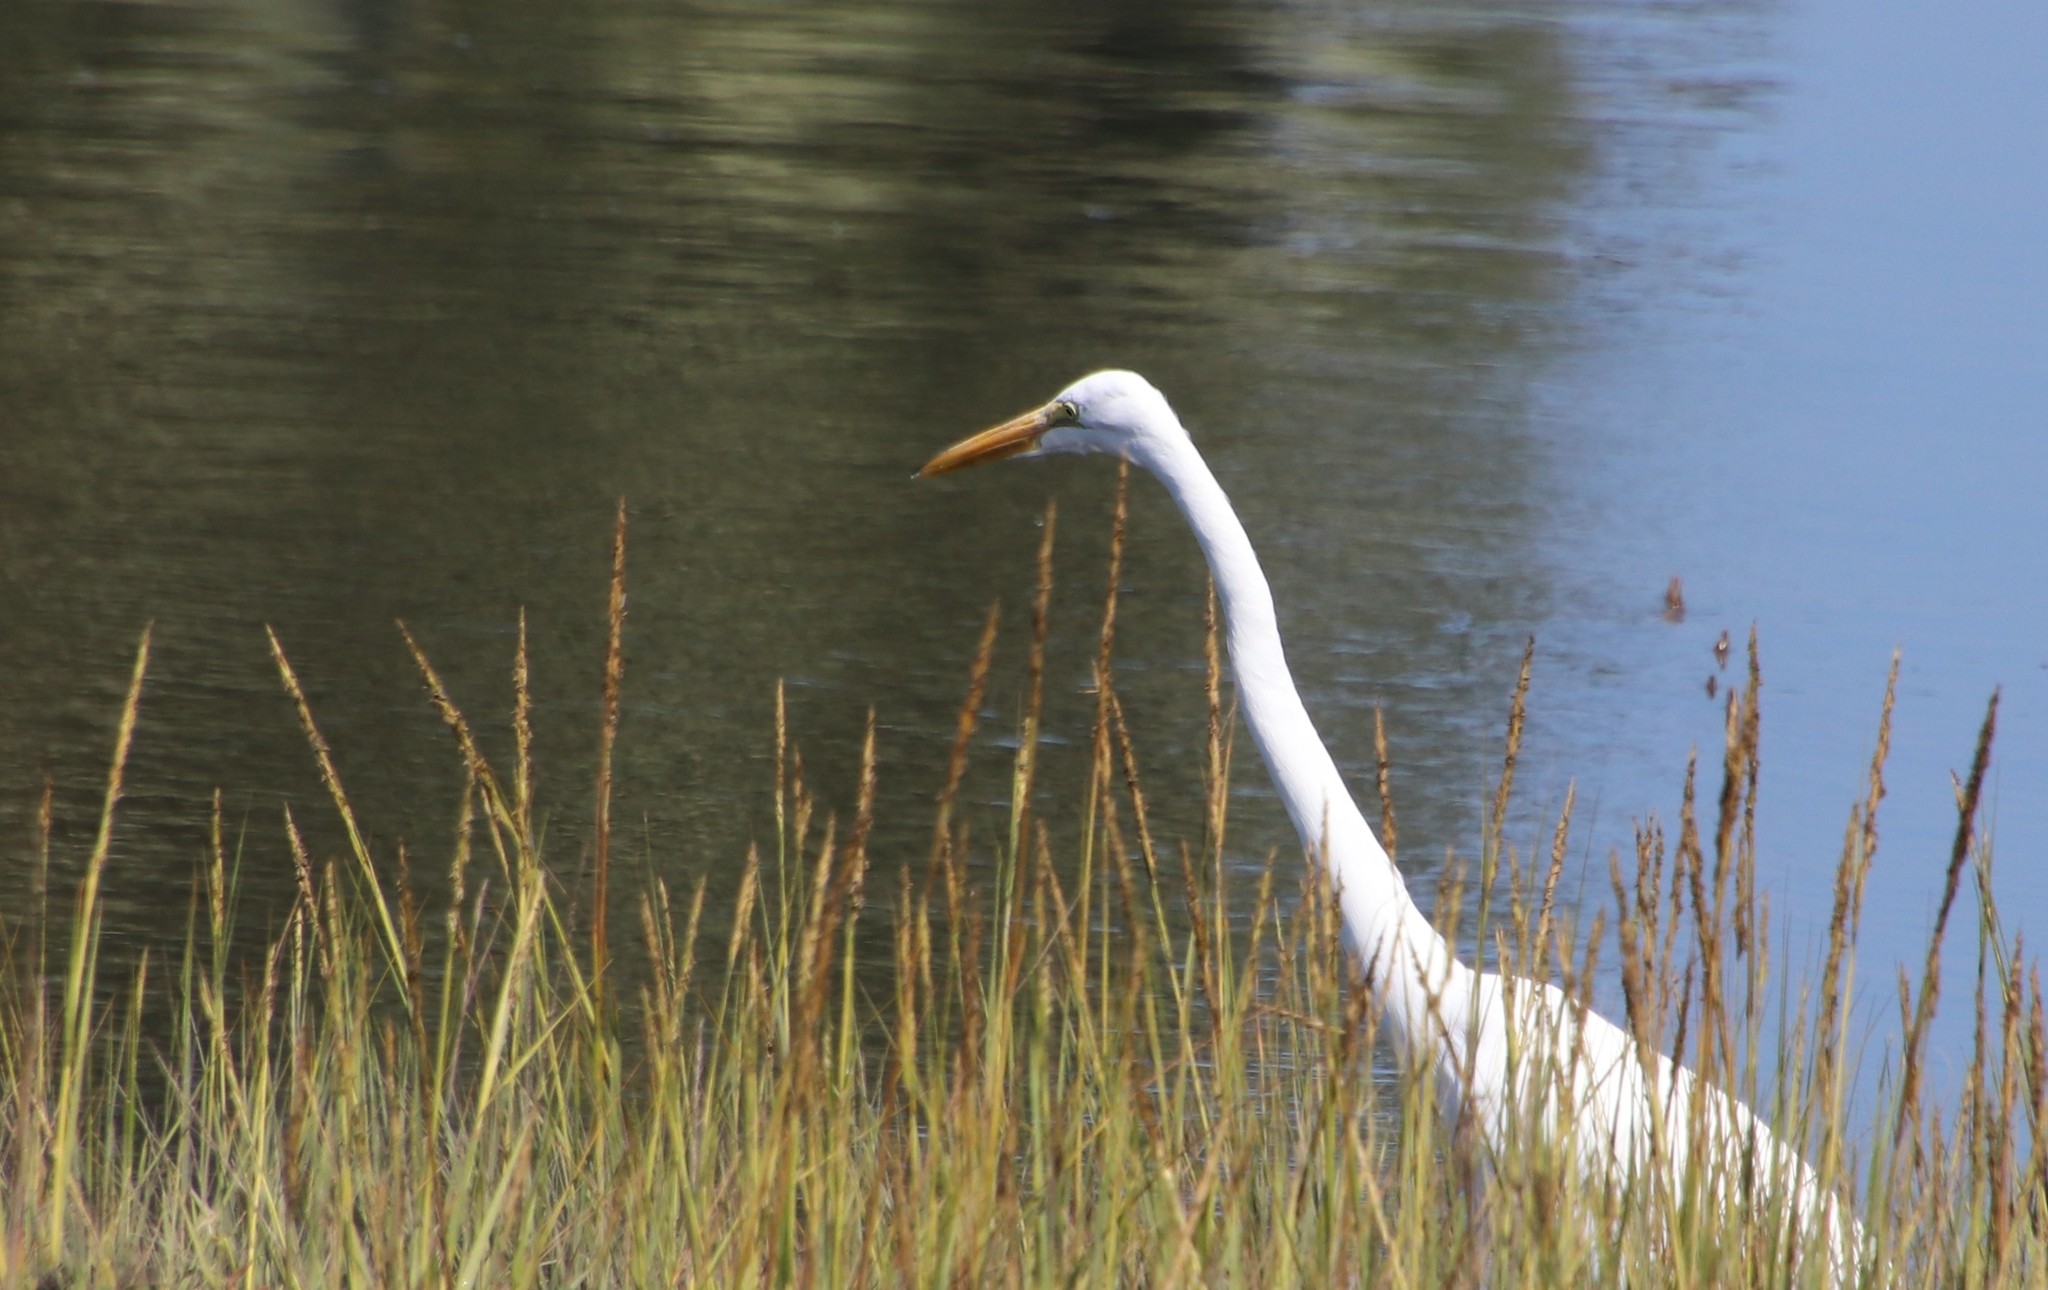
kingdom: Animalia
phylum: Chordata
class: Aves
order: Pelecaniformes
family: Ardeidae
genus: Ardea
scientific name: Ardea alba
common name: Great egret
